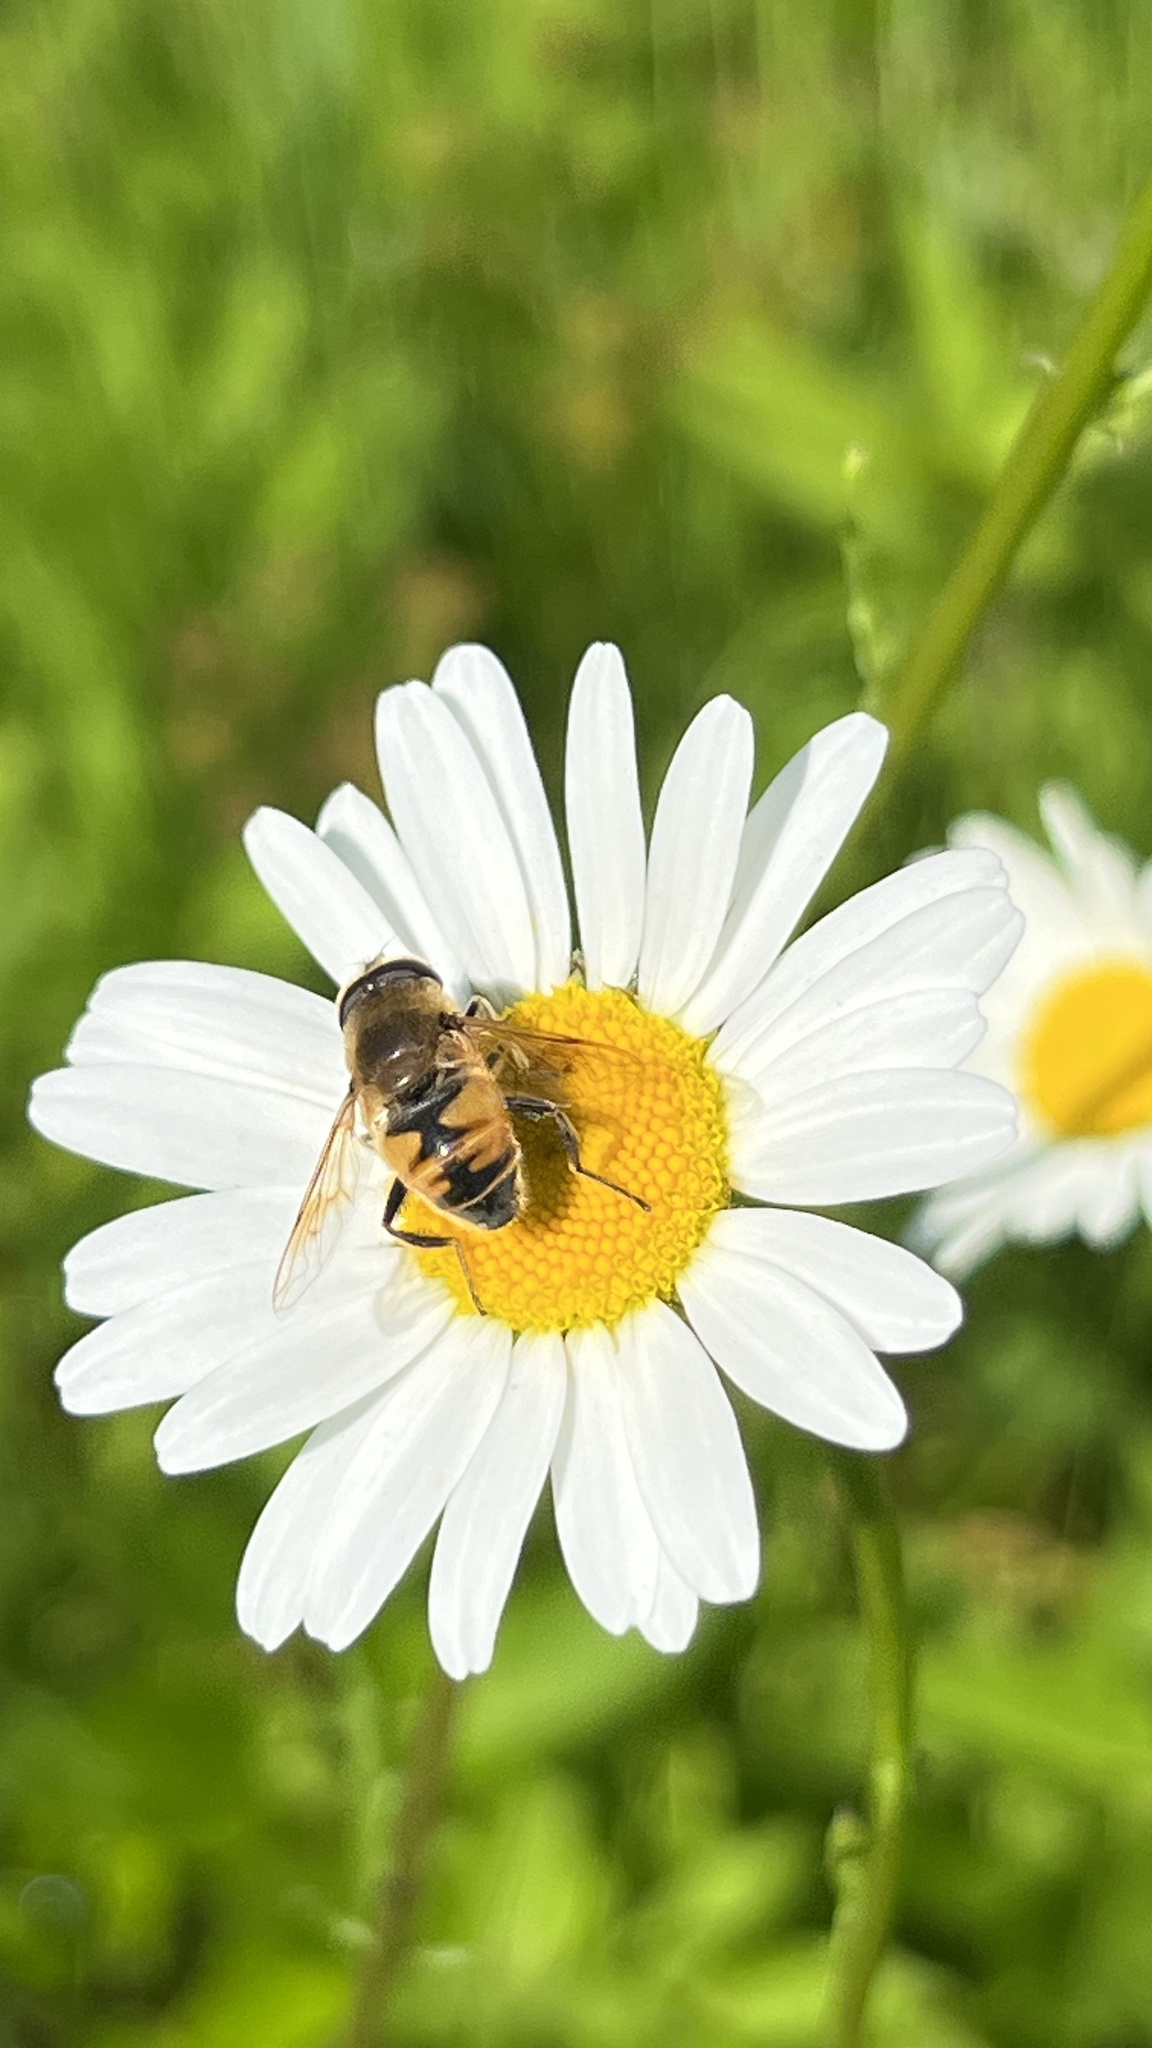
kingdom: Animalia
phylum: Arthropoda
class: Insecta
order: Diptera
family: Syrphidae
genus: Eristalis
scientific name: Eristalis tenax
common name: Drone fly
